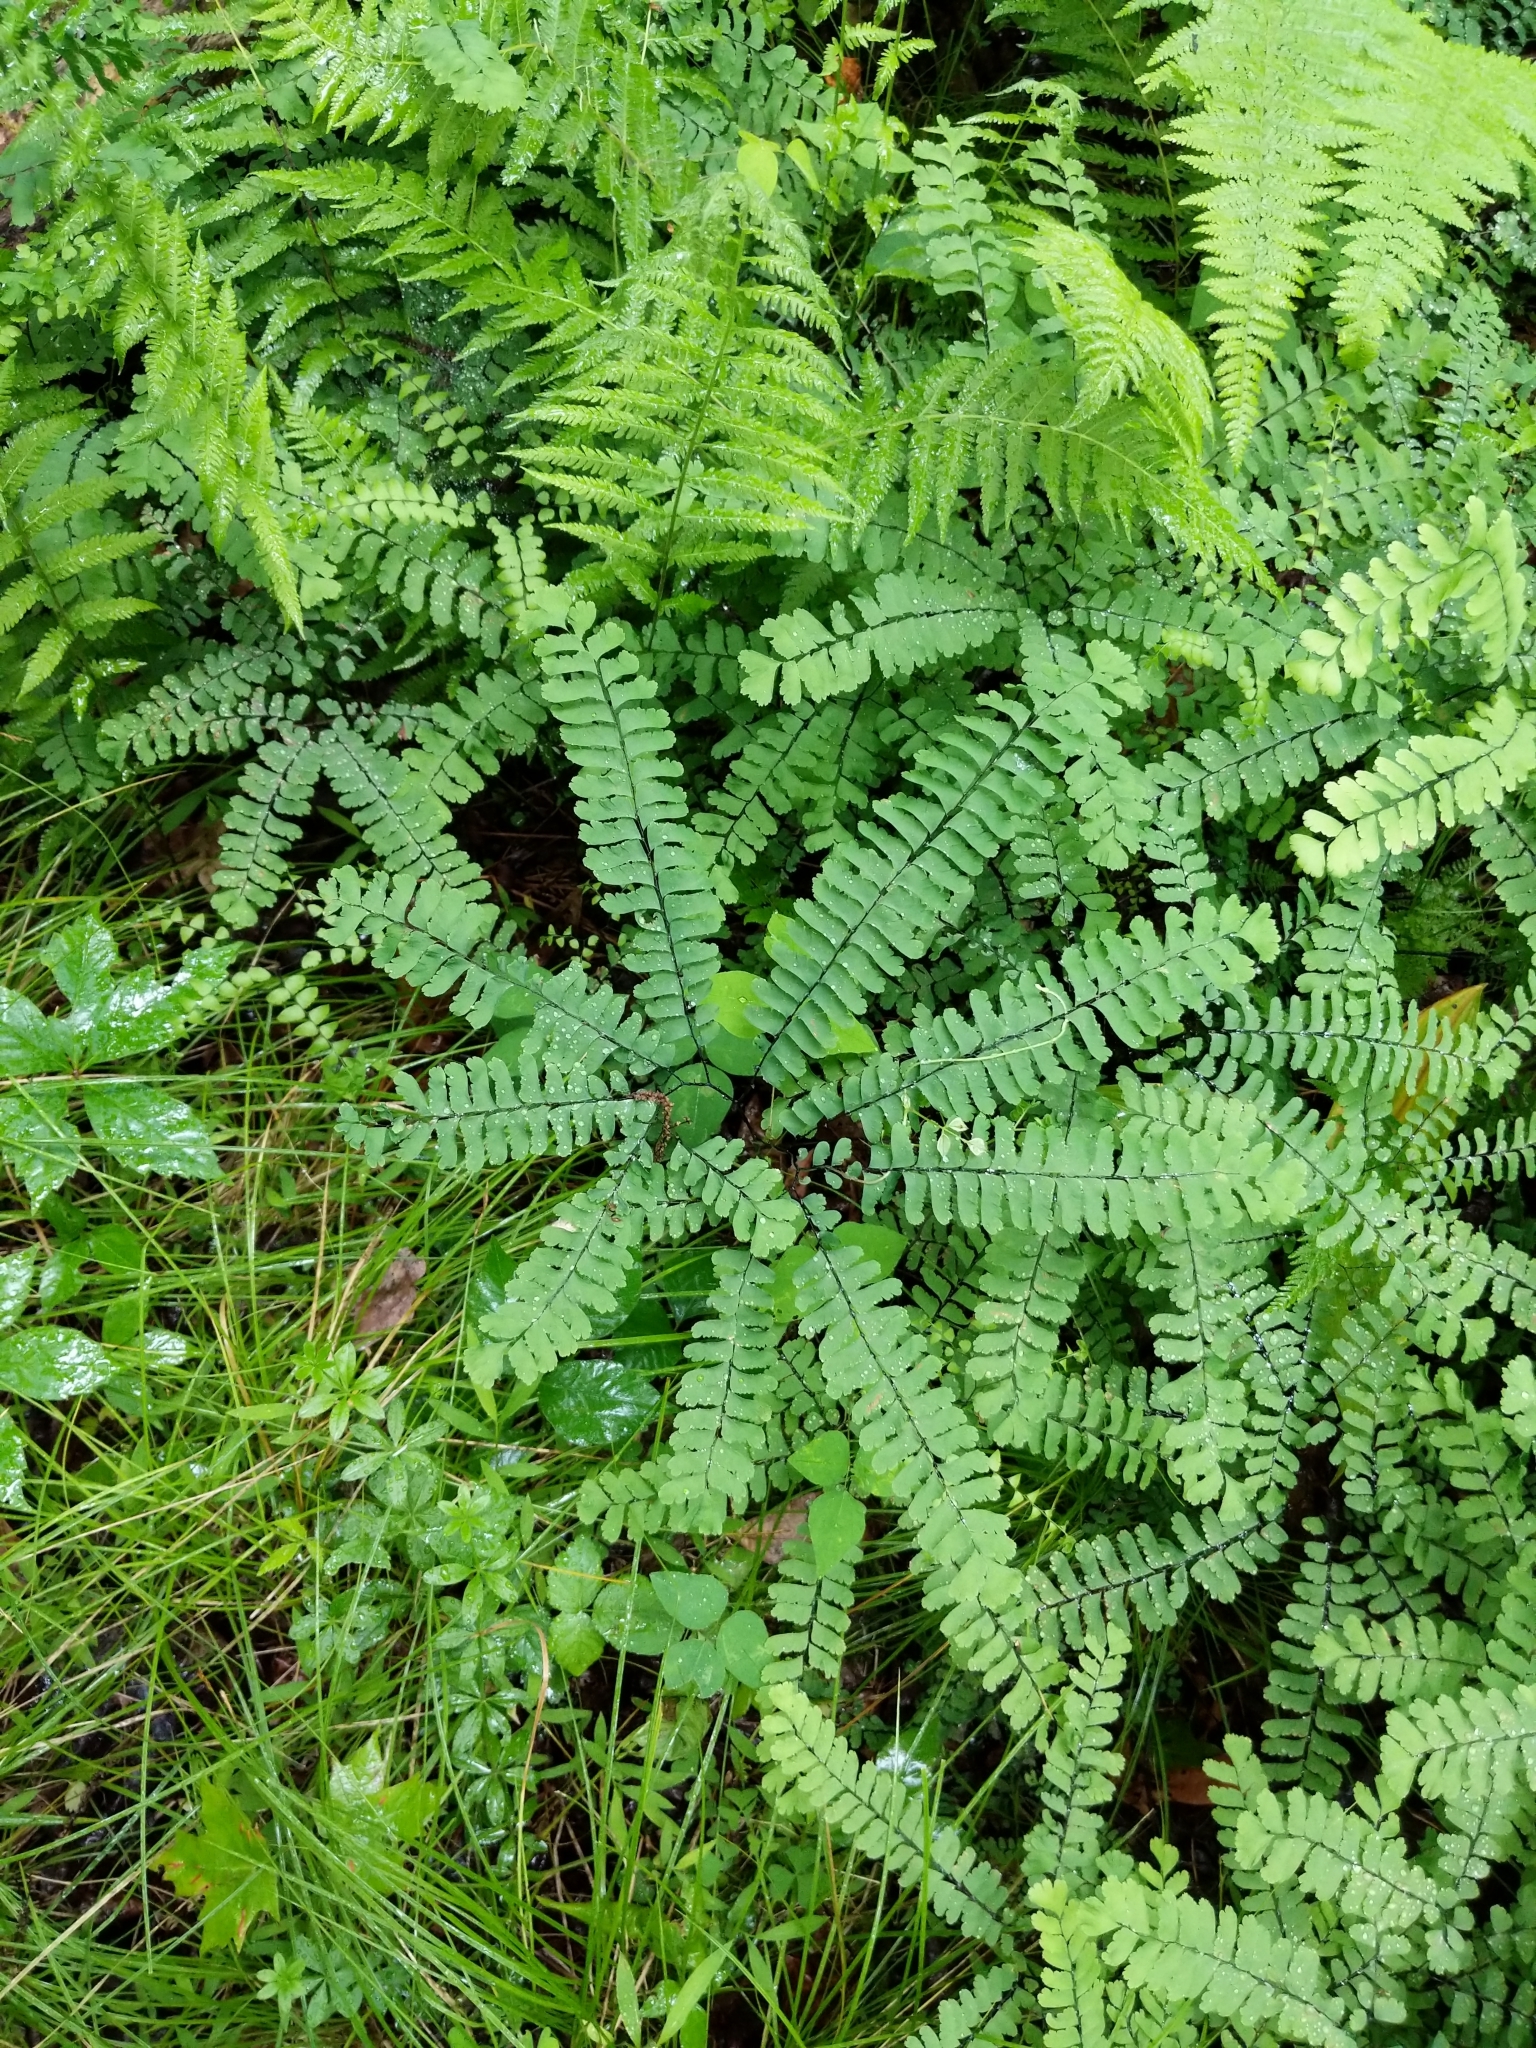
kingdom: Plantae
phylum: Tracheophyta
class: Polypodiopsida
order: Polypodiales
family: Pteridaceae
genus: Adiantum
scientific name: Adiantum pedatum
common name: Five-finger fern
